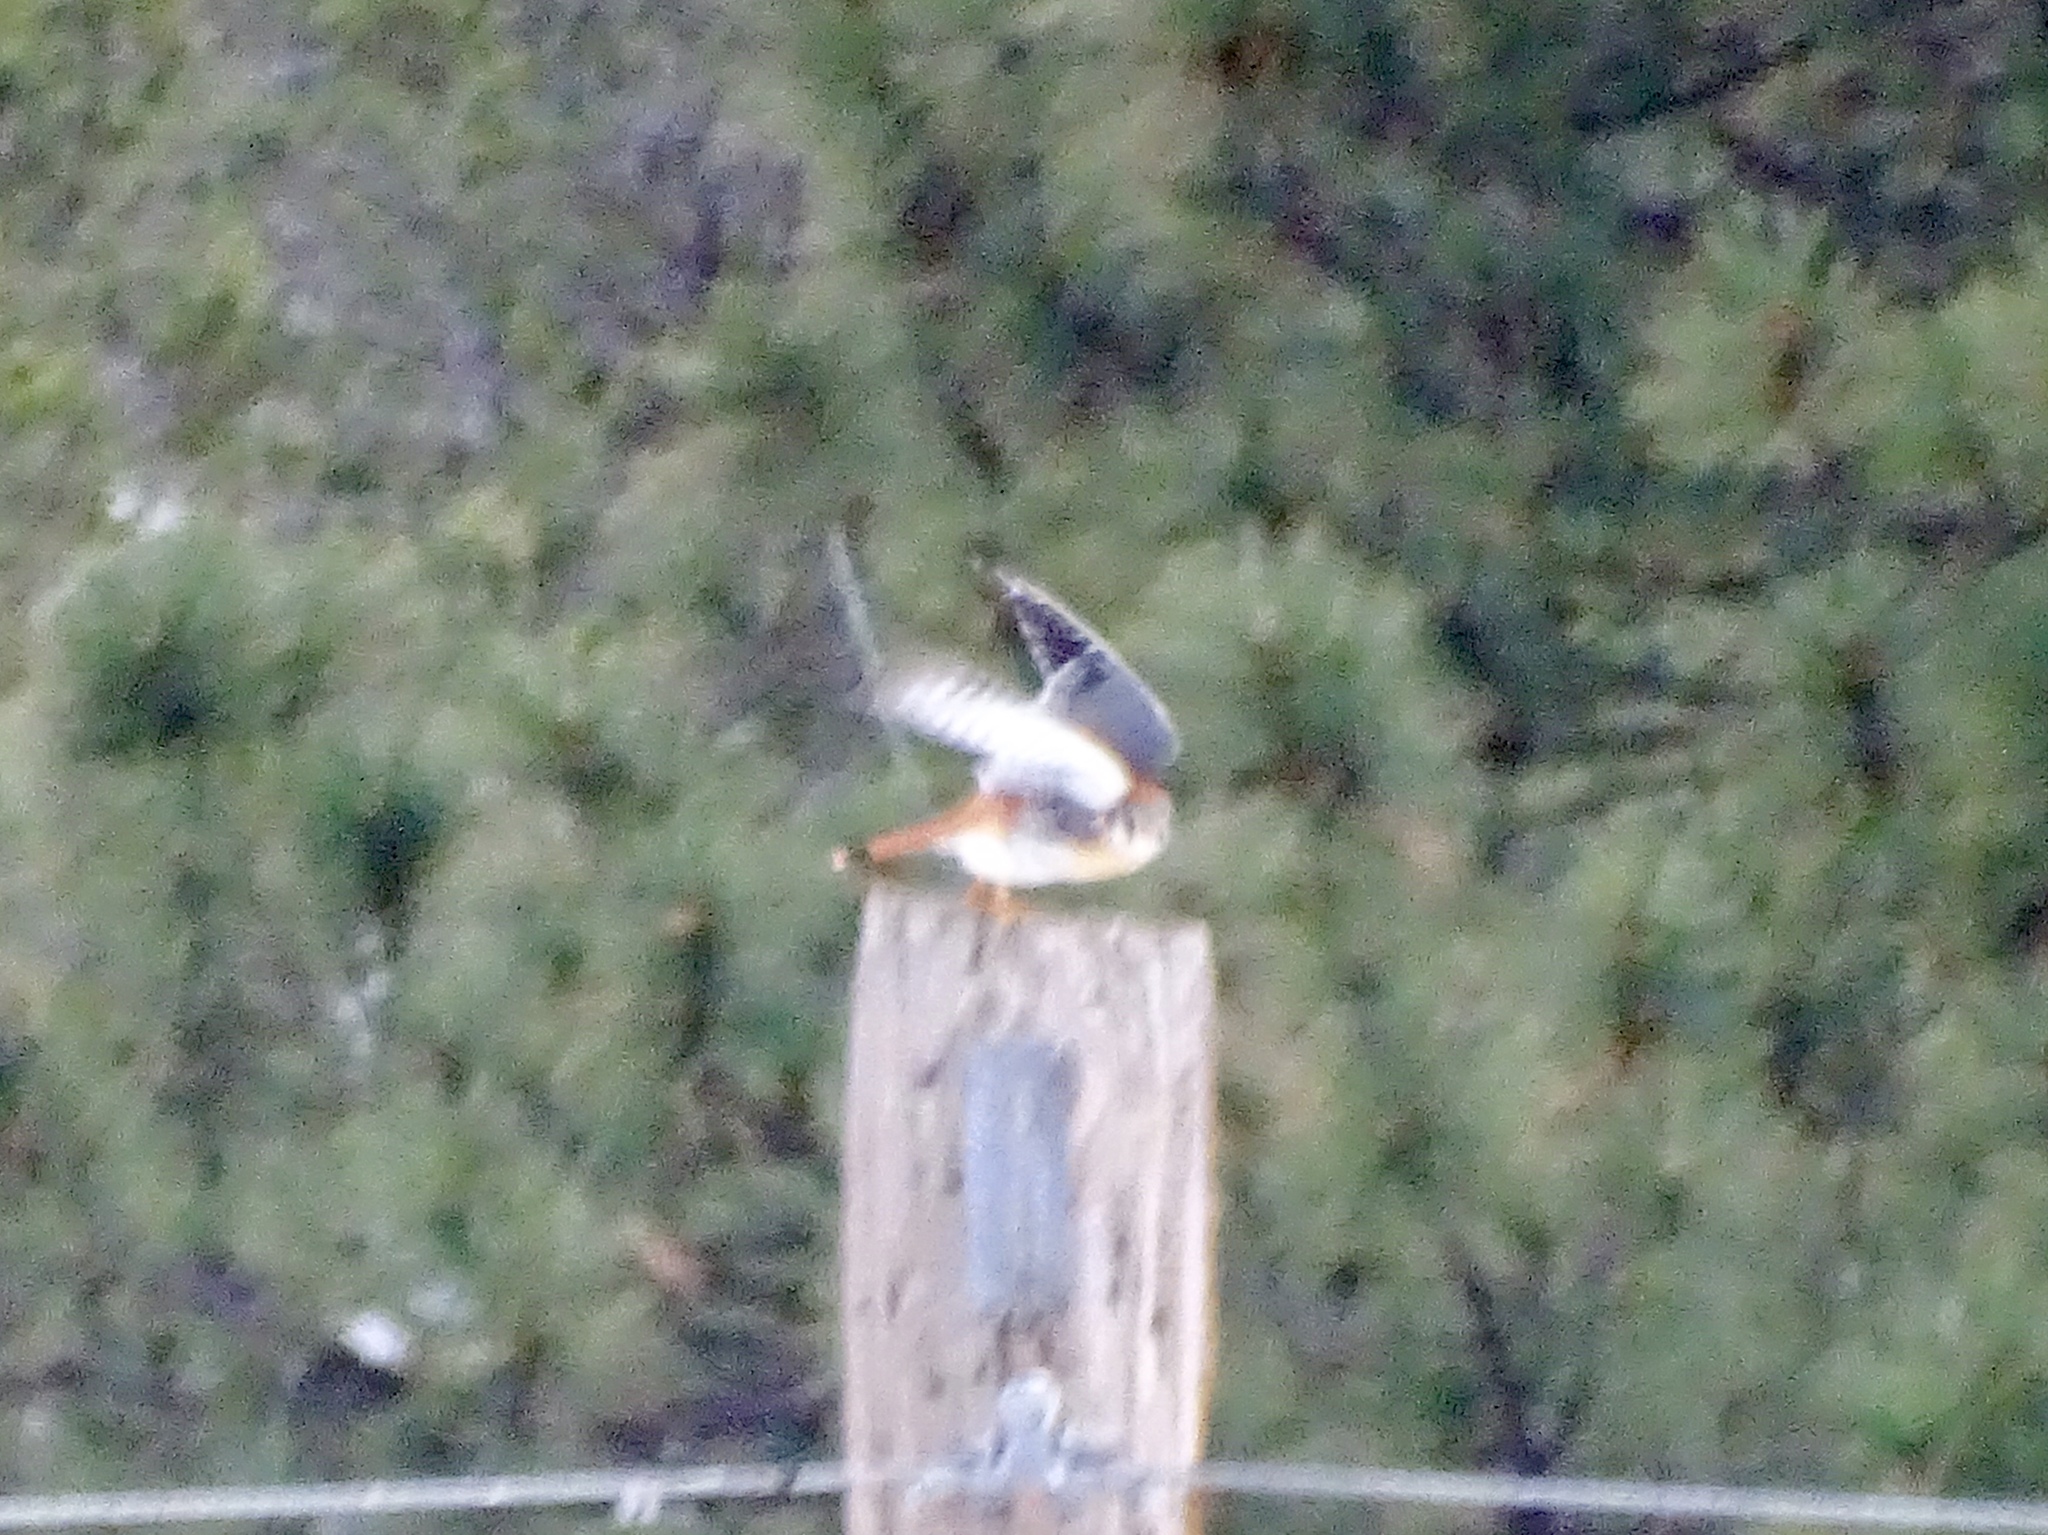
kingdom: Animalia
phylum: Chordata
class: Aves
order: Falconiformes
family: Falconidae
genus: Falco
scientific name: Falco sparverius
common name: American kestrel
